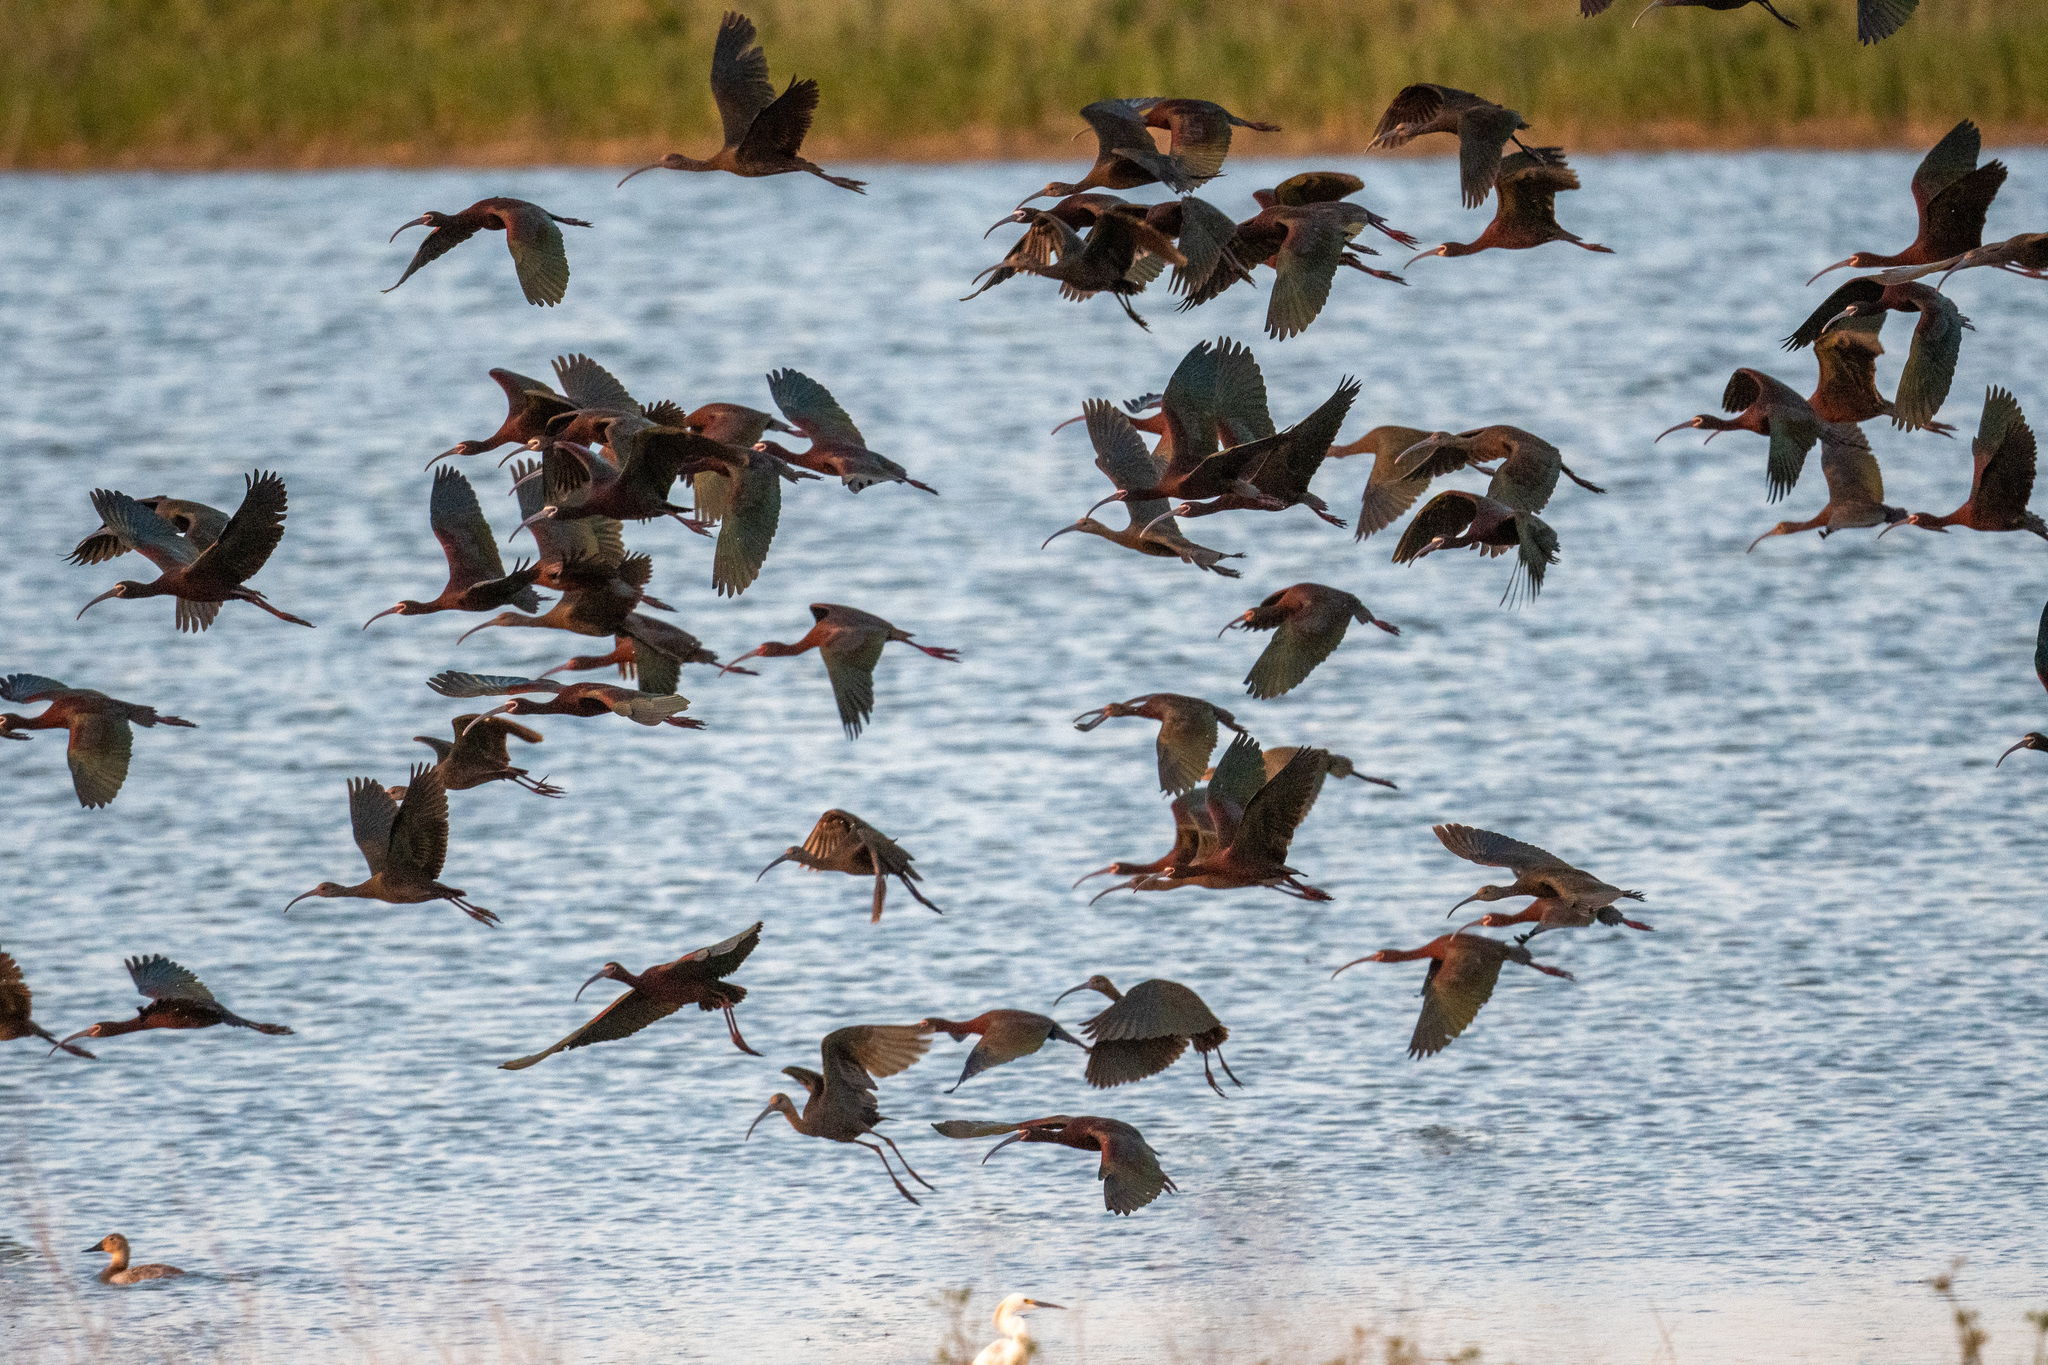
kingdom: Animalia
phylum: Chordata
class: Aves
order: Pelecaniformes
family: Threskiornithidae
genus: Plegadis
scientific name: Plegadis chihi
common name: White-faced ibis
